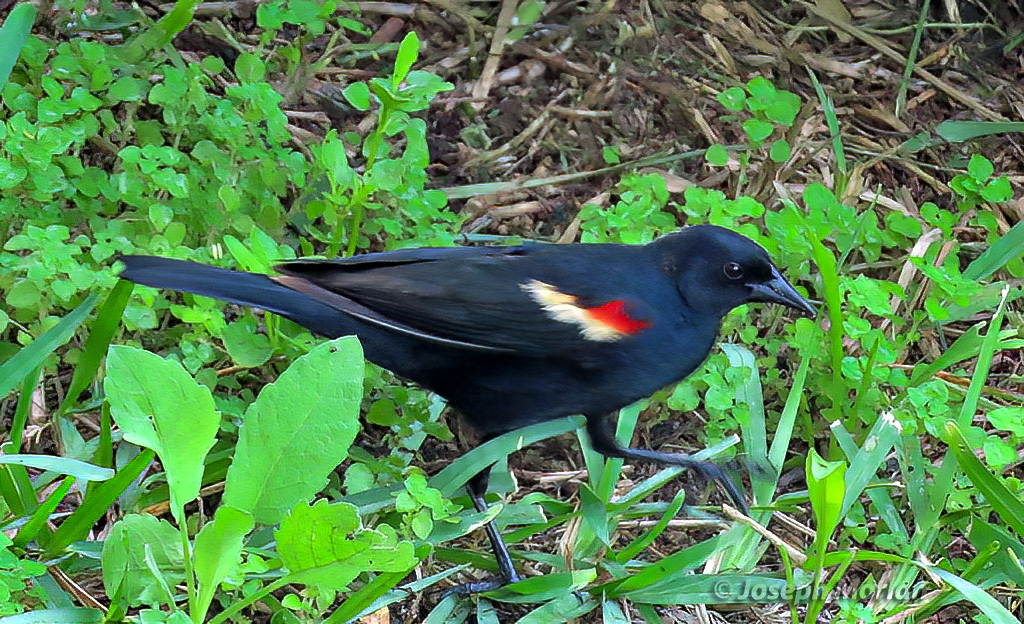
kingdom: Animalia
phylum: Chordata
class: Aves
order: Passeriformes
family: Icteridae
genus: Agelaius
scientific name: Agelaius phoeniceus
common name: Red-winged blackbird
